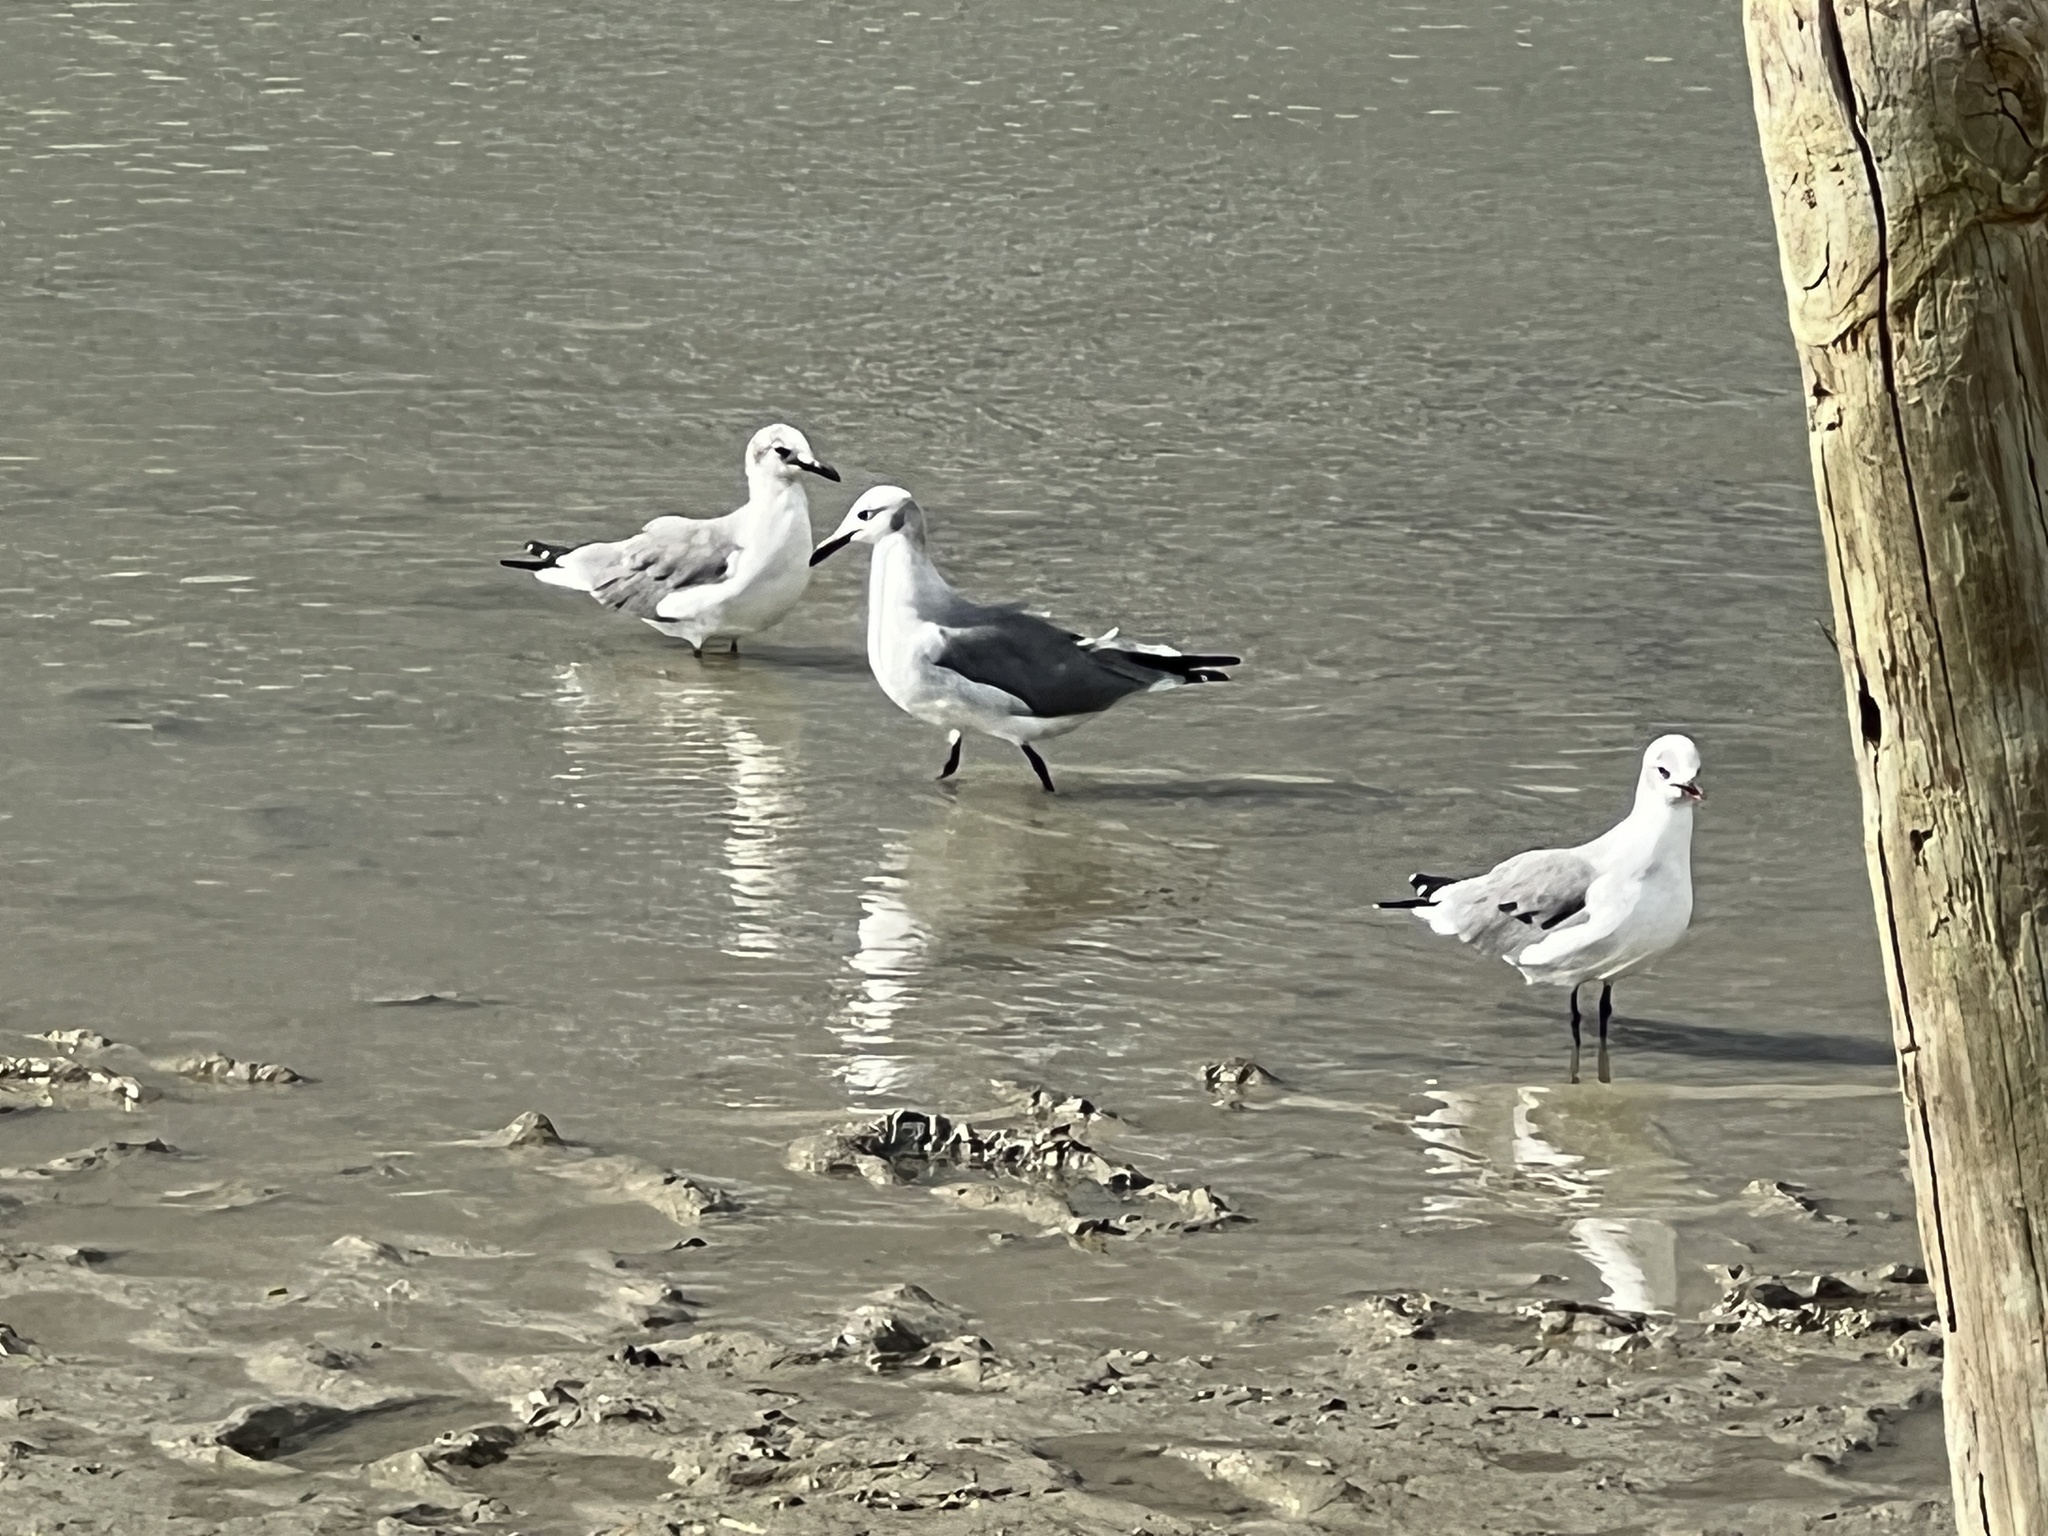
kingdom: Animalia
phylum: Chordata
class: Aves
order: Charadriiformes
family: Laridae
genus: Leucophaeus
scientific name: Leucophaeus atricilla
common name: Laughing gull
